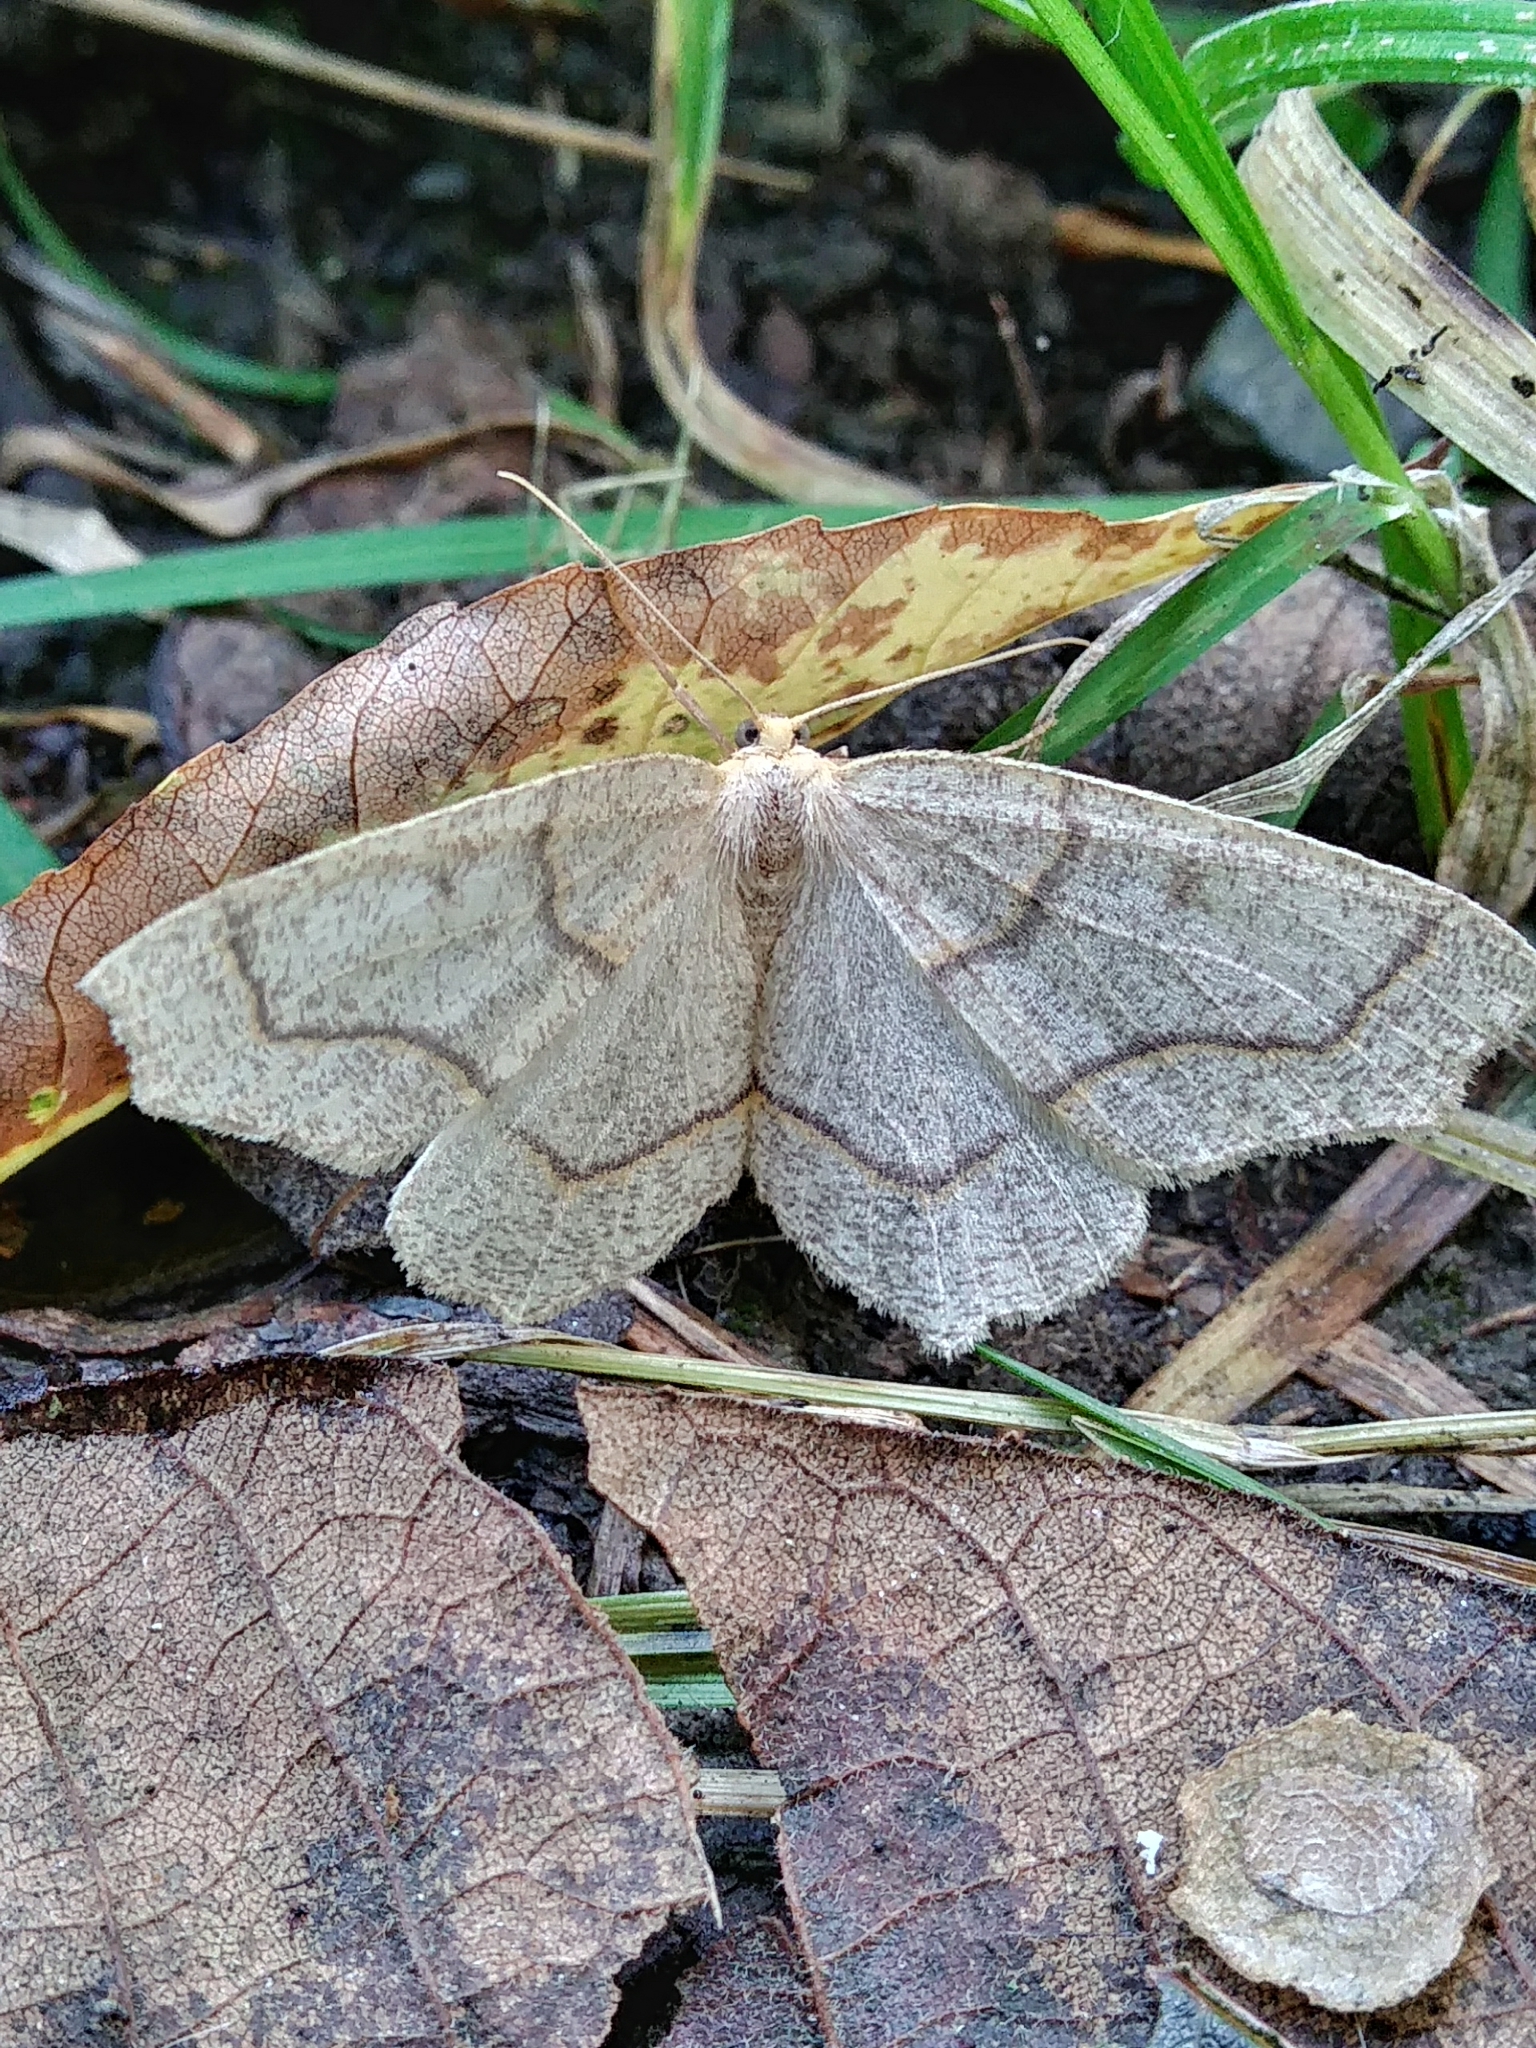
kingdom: Animalia
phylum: Arthropoda
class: Insecta
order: Lepidoptera
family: Geometridae
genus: Lambdina
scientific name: Lambdina fiscellaria
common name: Hemlock looper
